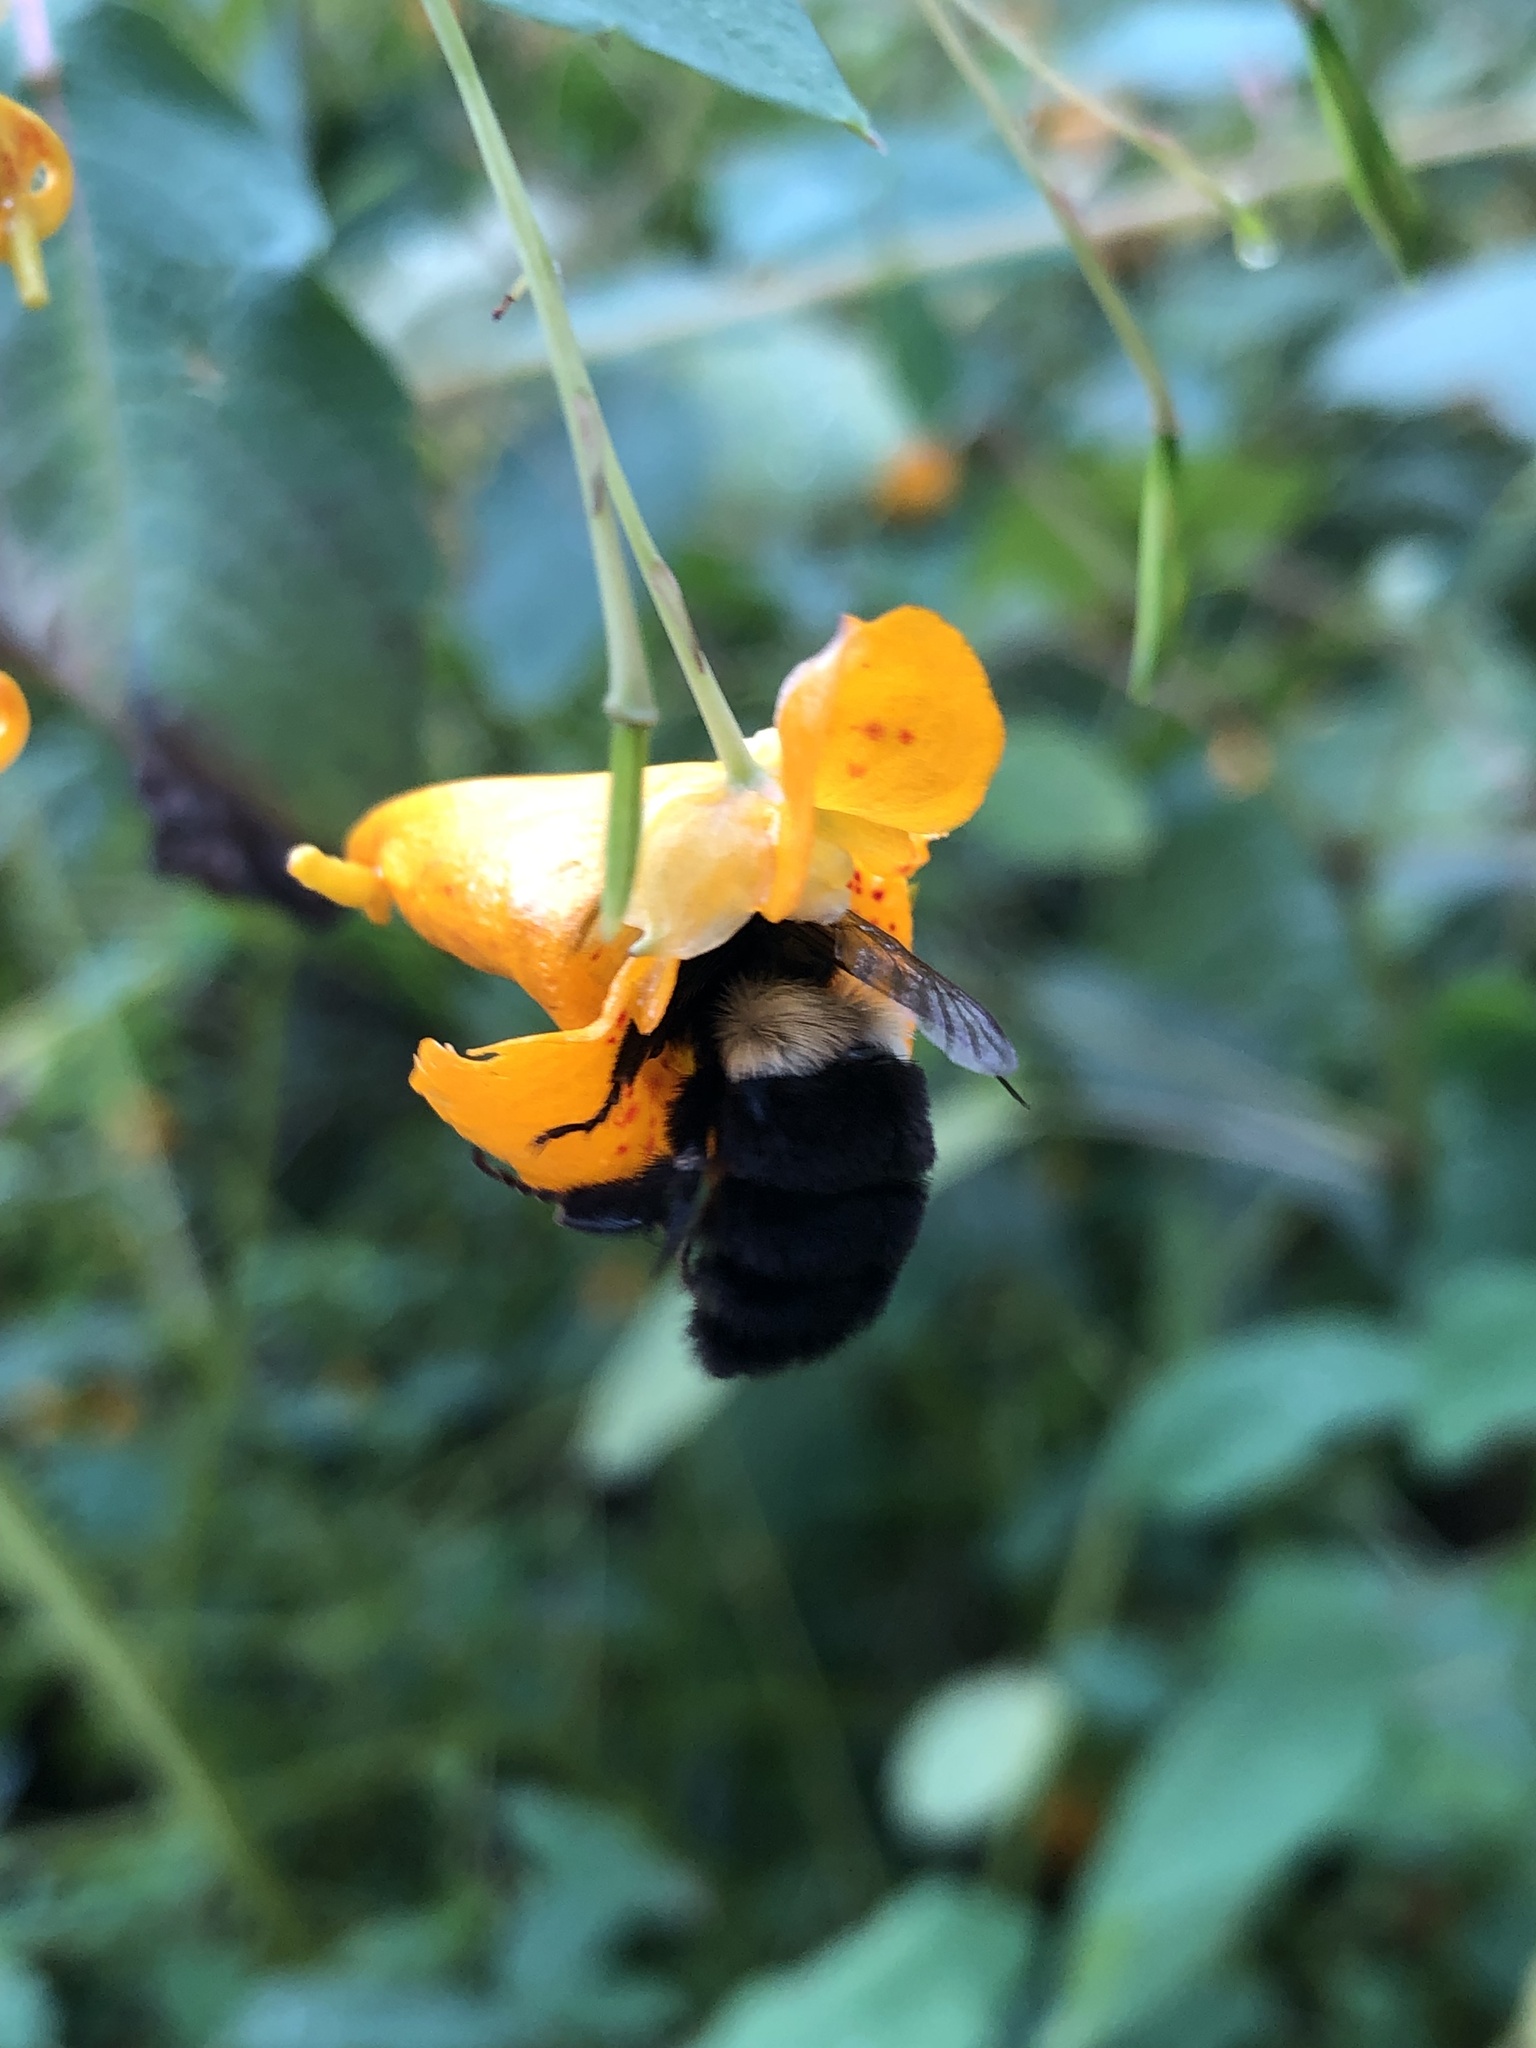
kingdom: Animalia
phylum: Arthropoda
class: Insecta
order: Hymenoptera
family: Apidae
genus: Bombus
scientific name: Bombus impatiens
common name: Common eastern bumble bee
